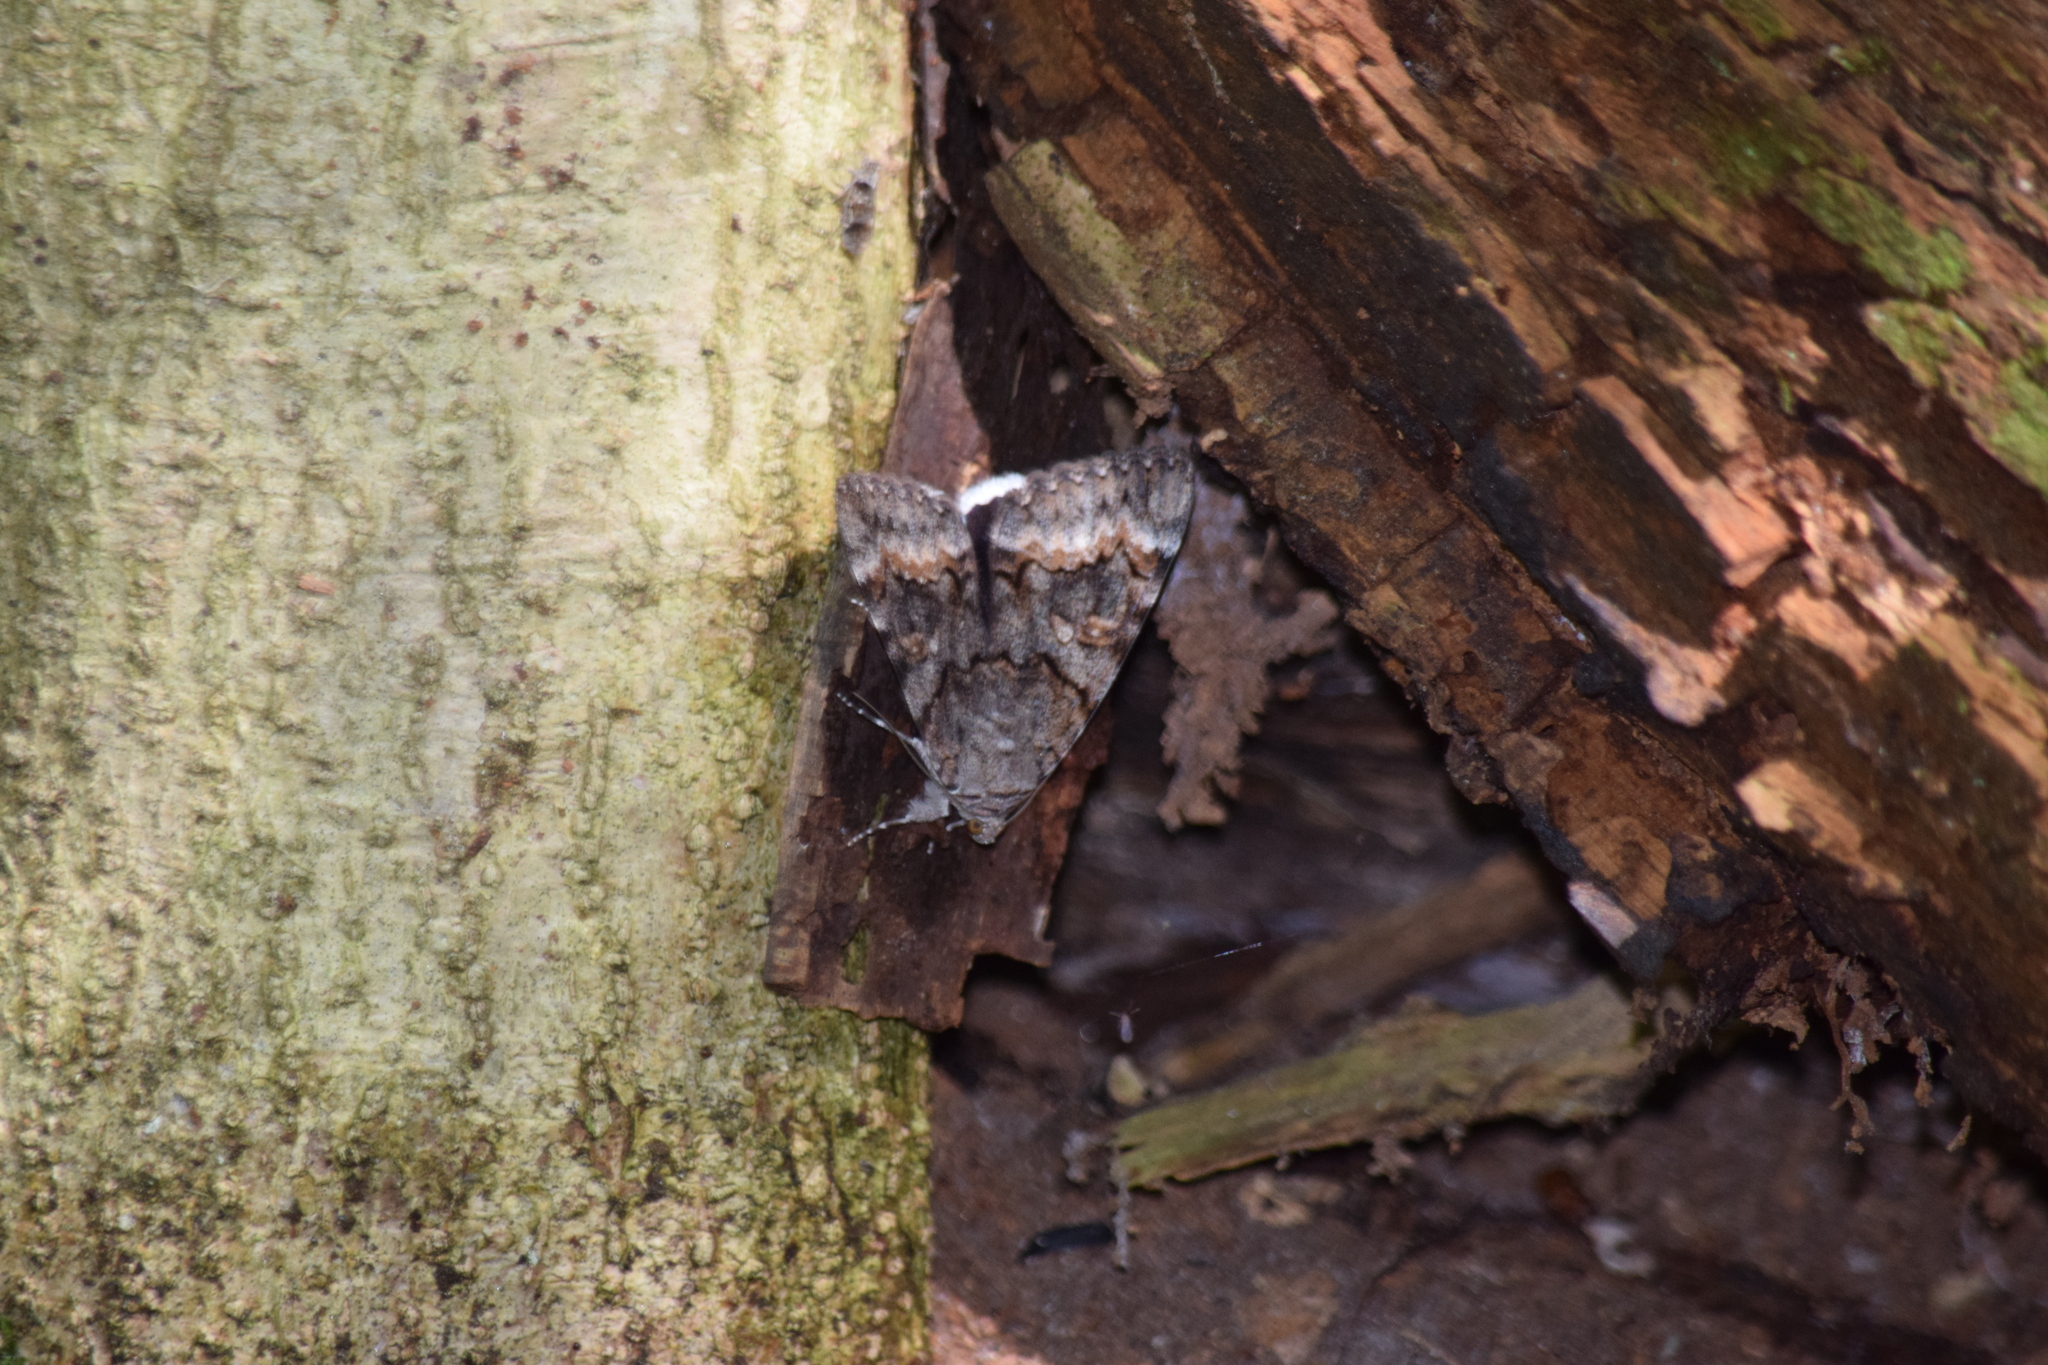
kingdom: Animalia
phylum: Arthropoda
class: Insecta
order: Lepidoptera
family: Erebidae
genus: Catocala
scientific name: Catocala epione
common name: Epione underwing
